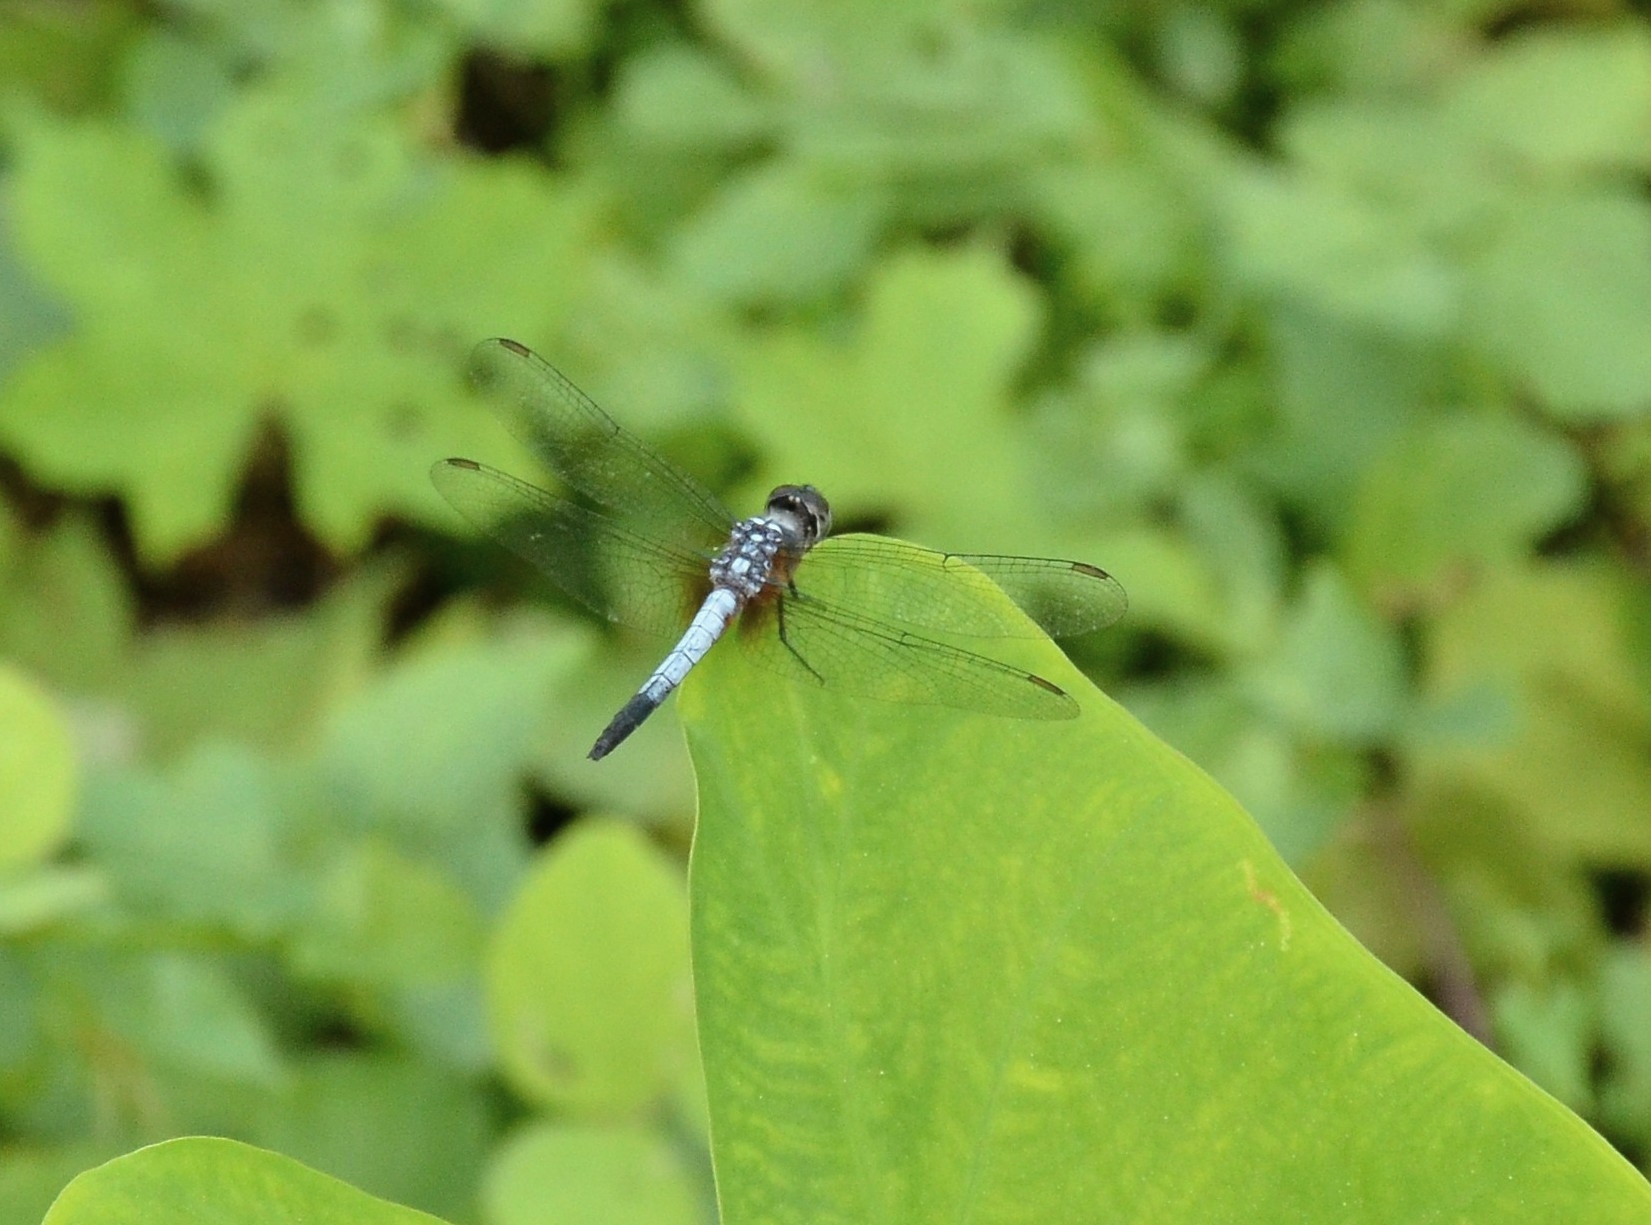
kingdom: Animalia
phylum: Arthropoda
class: Insecta
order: Odonata
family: Libellulidae
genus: Brachydiplax
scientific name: Brachydiplax chalybea
